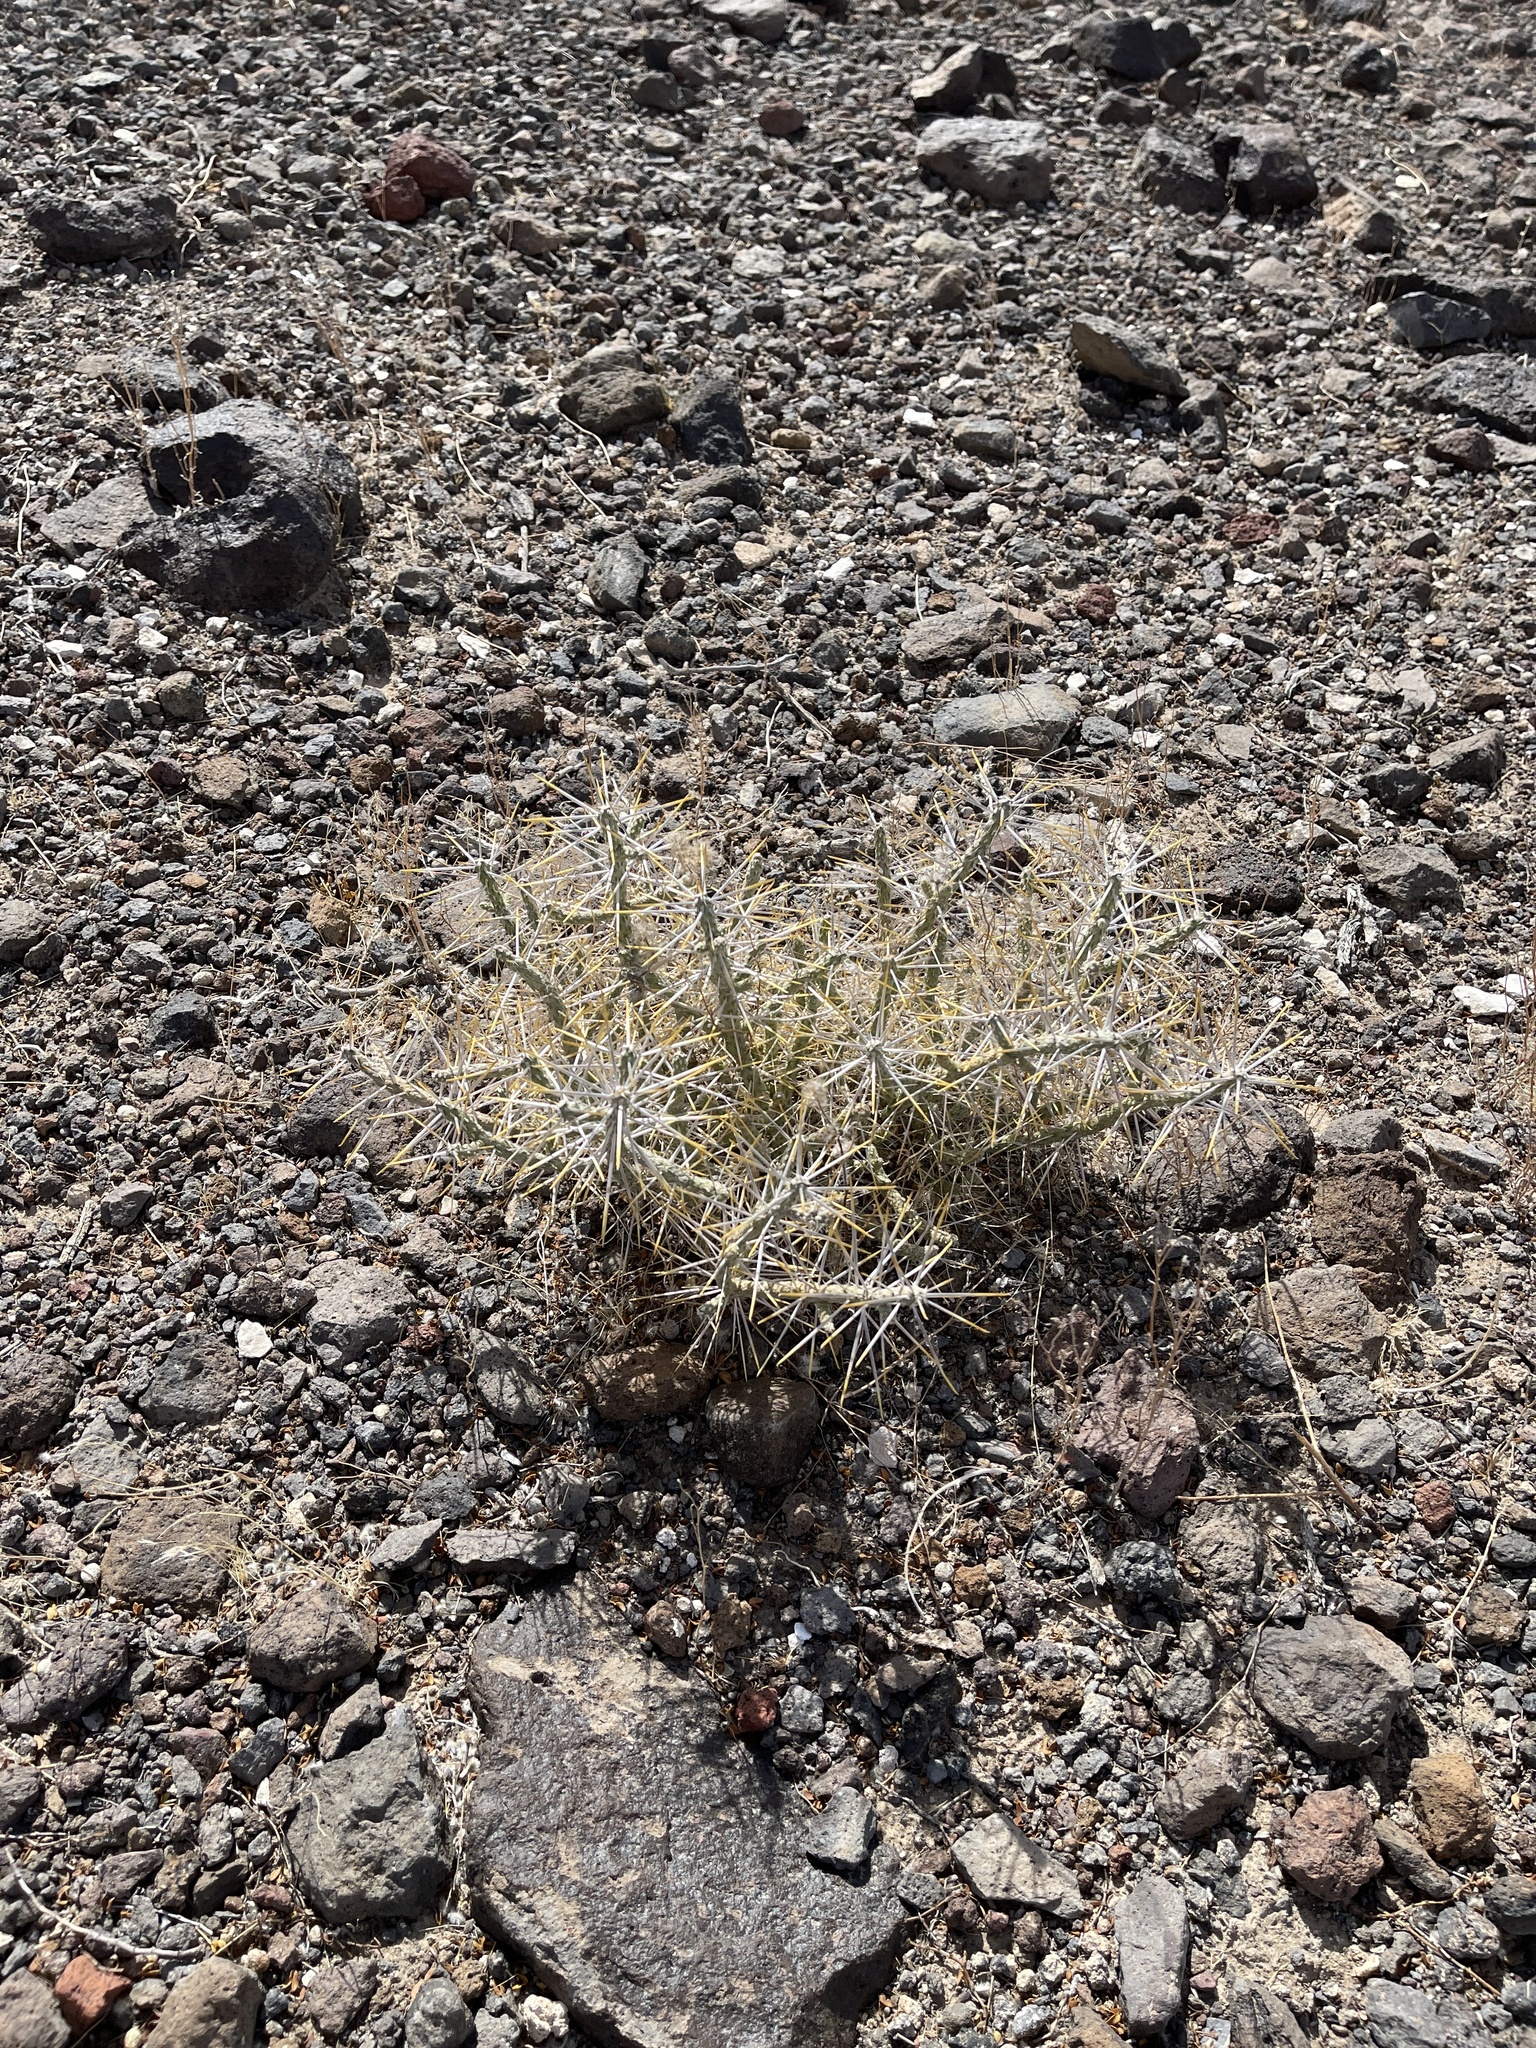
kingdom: Plantae
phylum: Tracheophyta
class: Magnoliopsida
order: Caryophyllales
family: Cactaceae
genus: Cylindropuntia
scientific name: Cylindropuntia ramosissima
